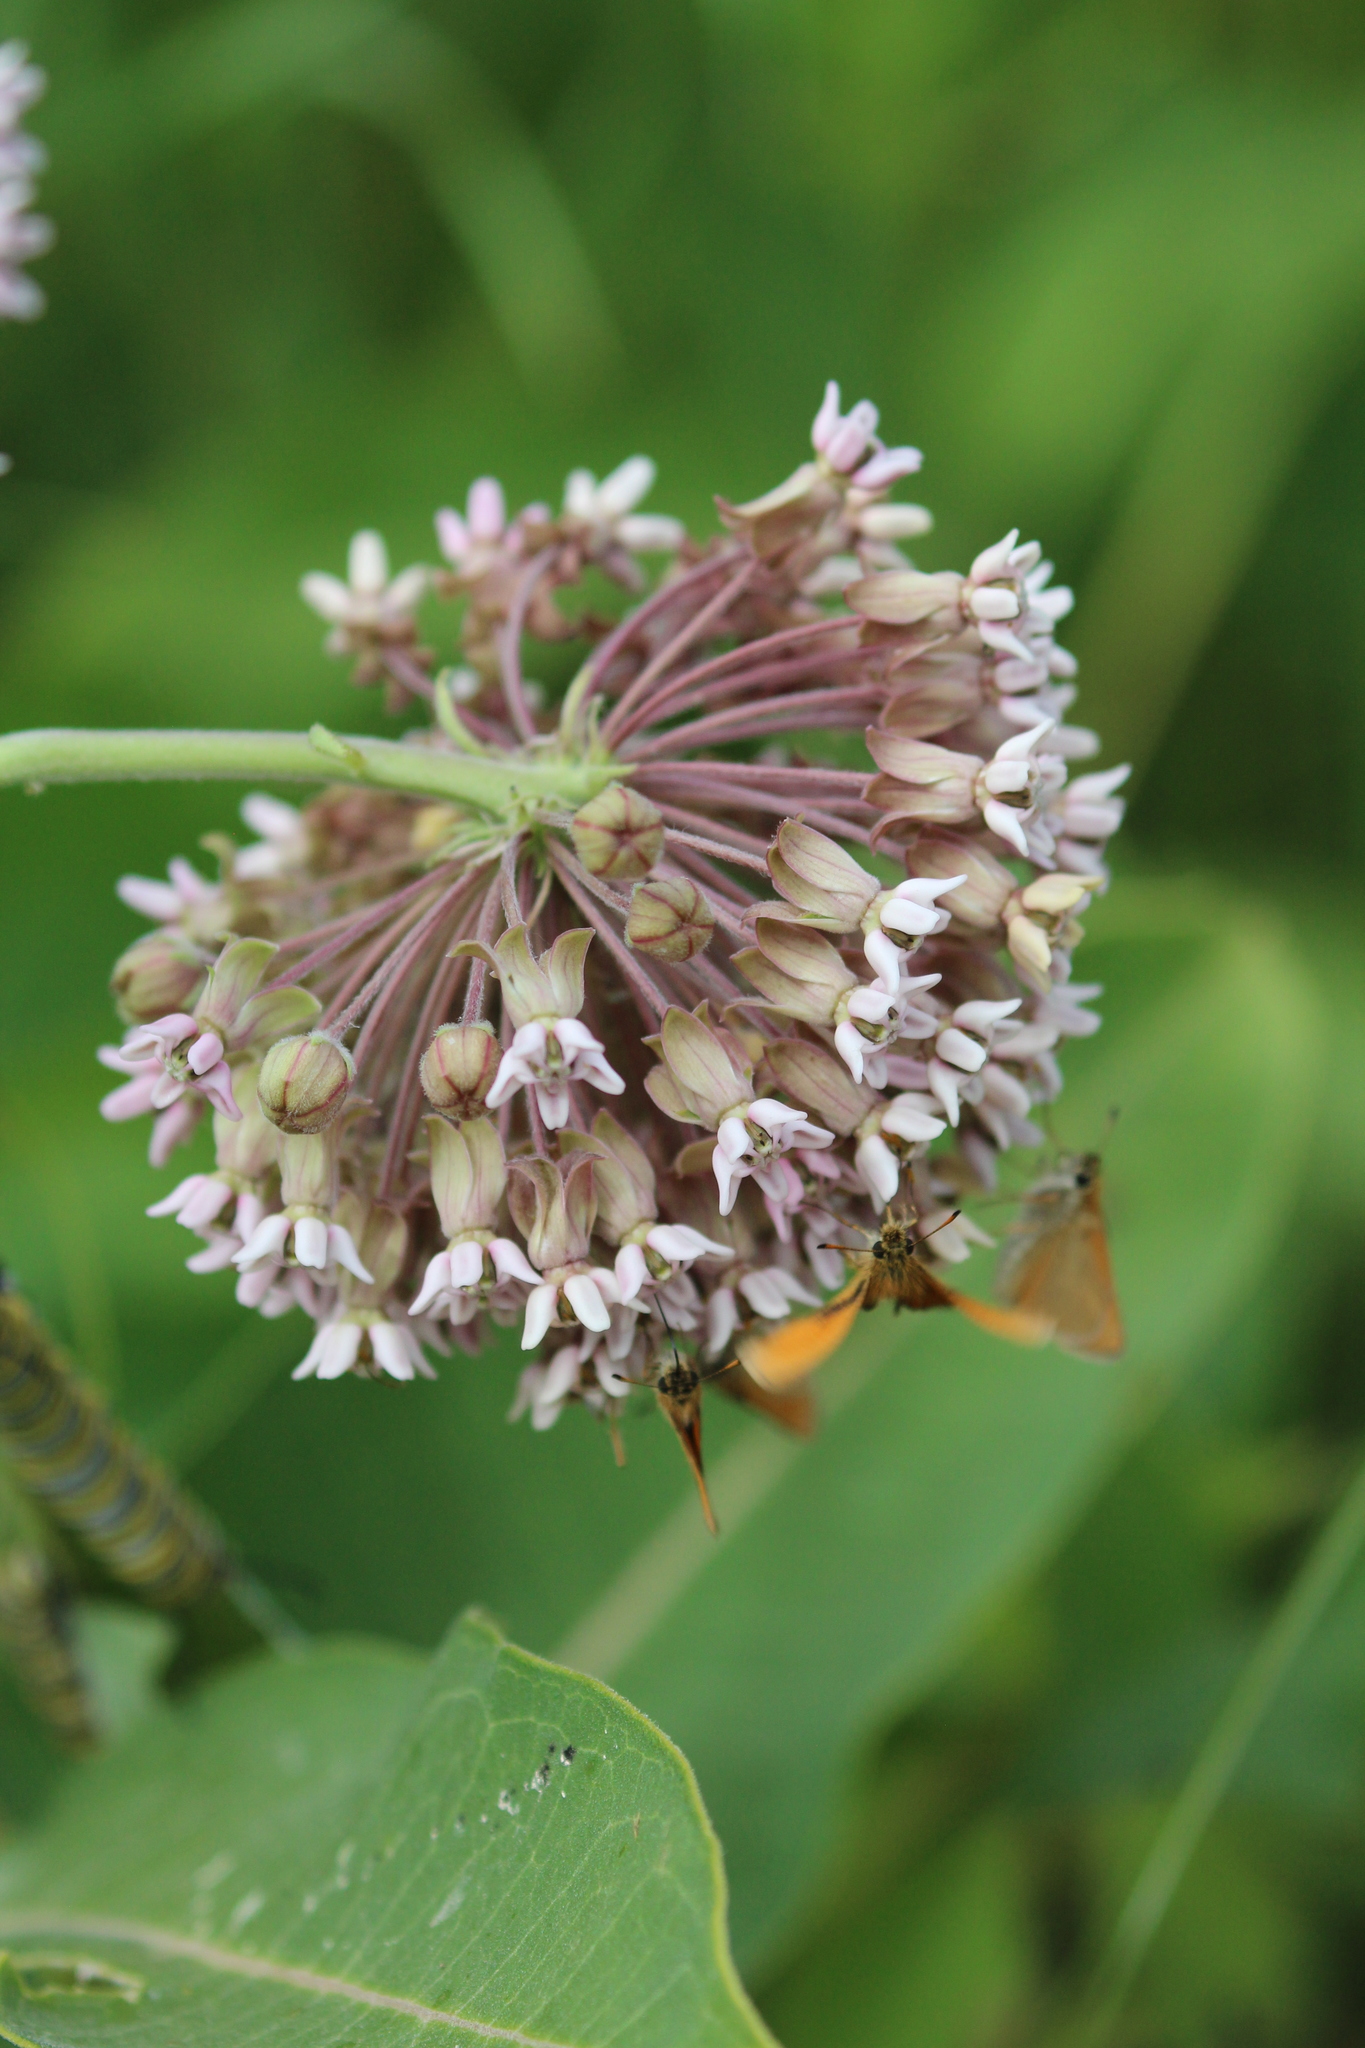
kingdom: Plantae
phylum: Tracheophyta
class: Magnoliopsida
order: Gentianales
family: Apocynaceae
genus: Asclepias
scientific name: Asclepias syriaca
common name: Common milkweed
